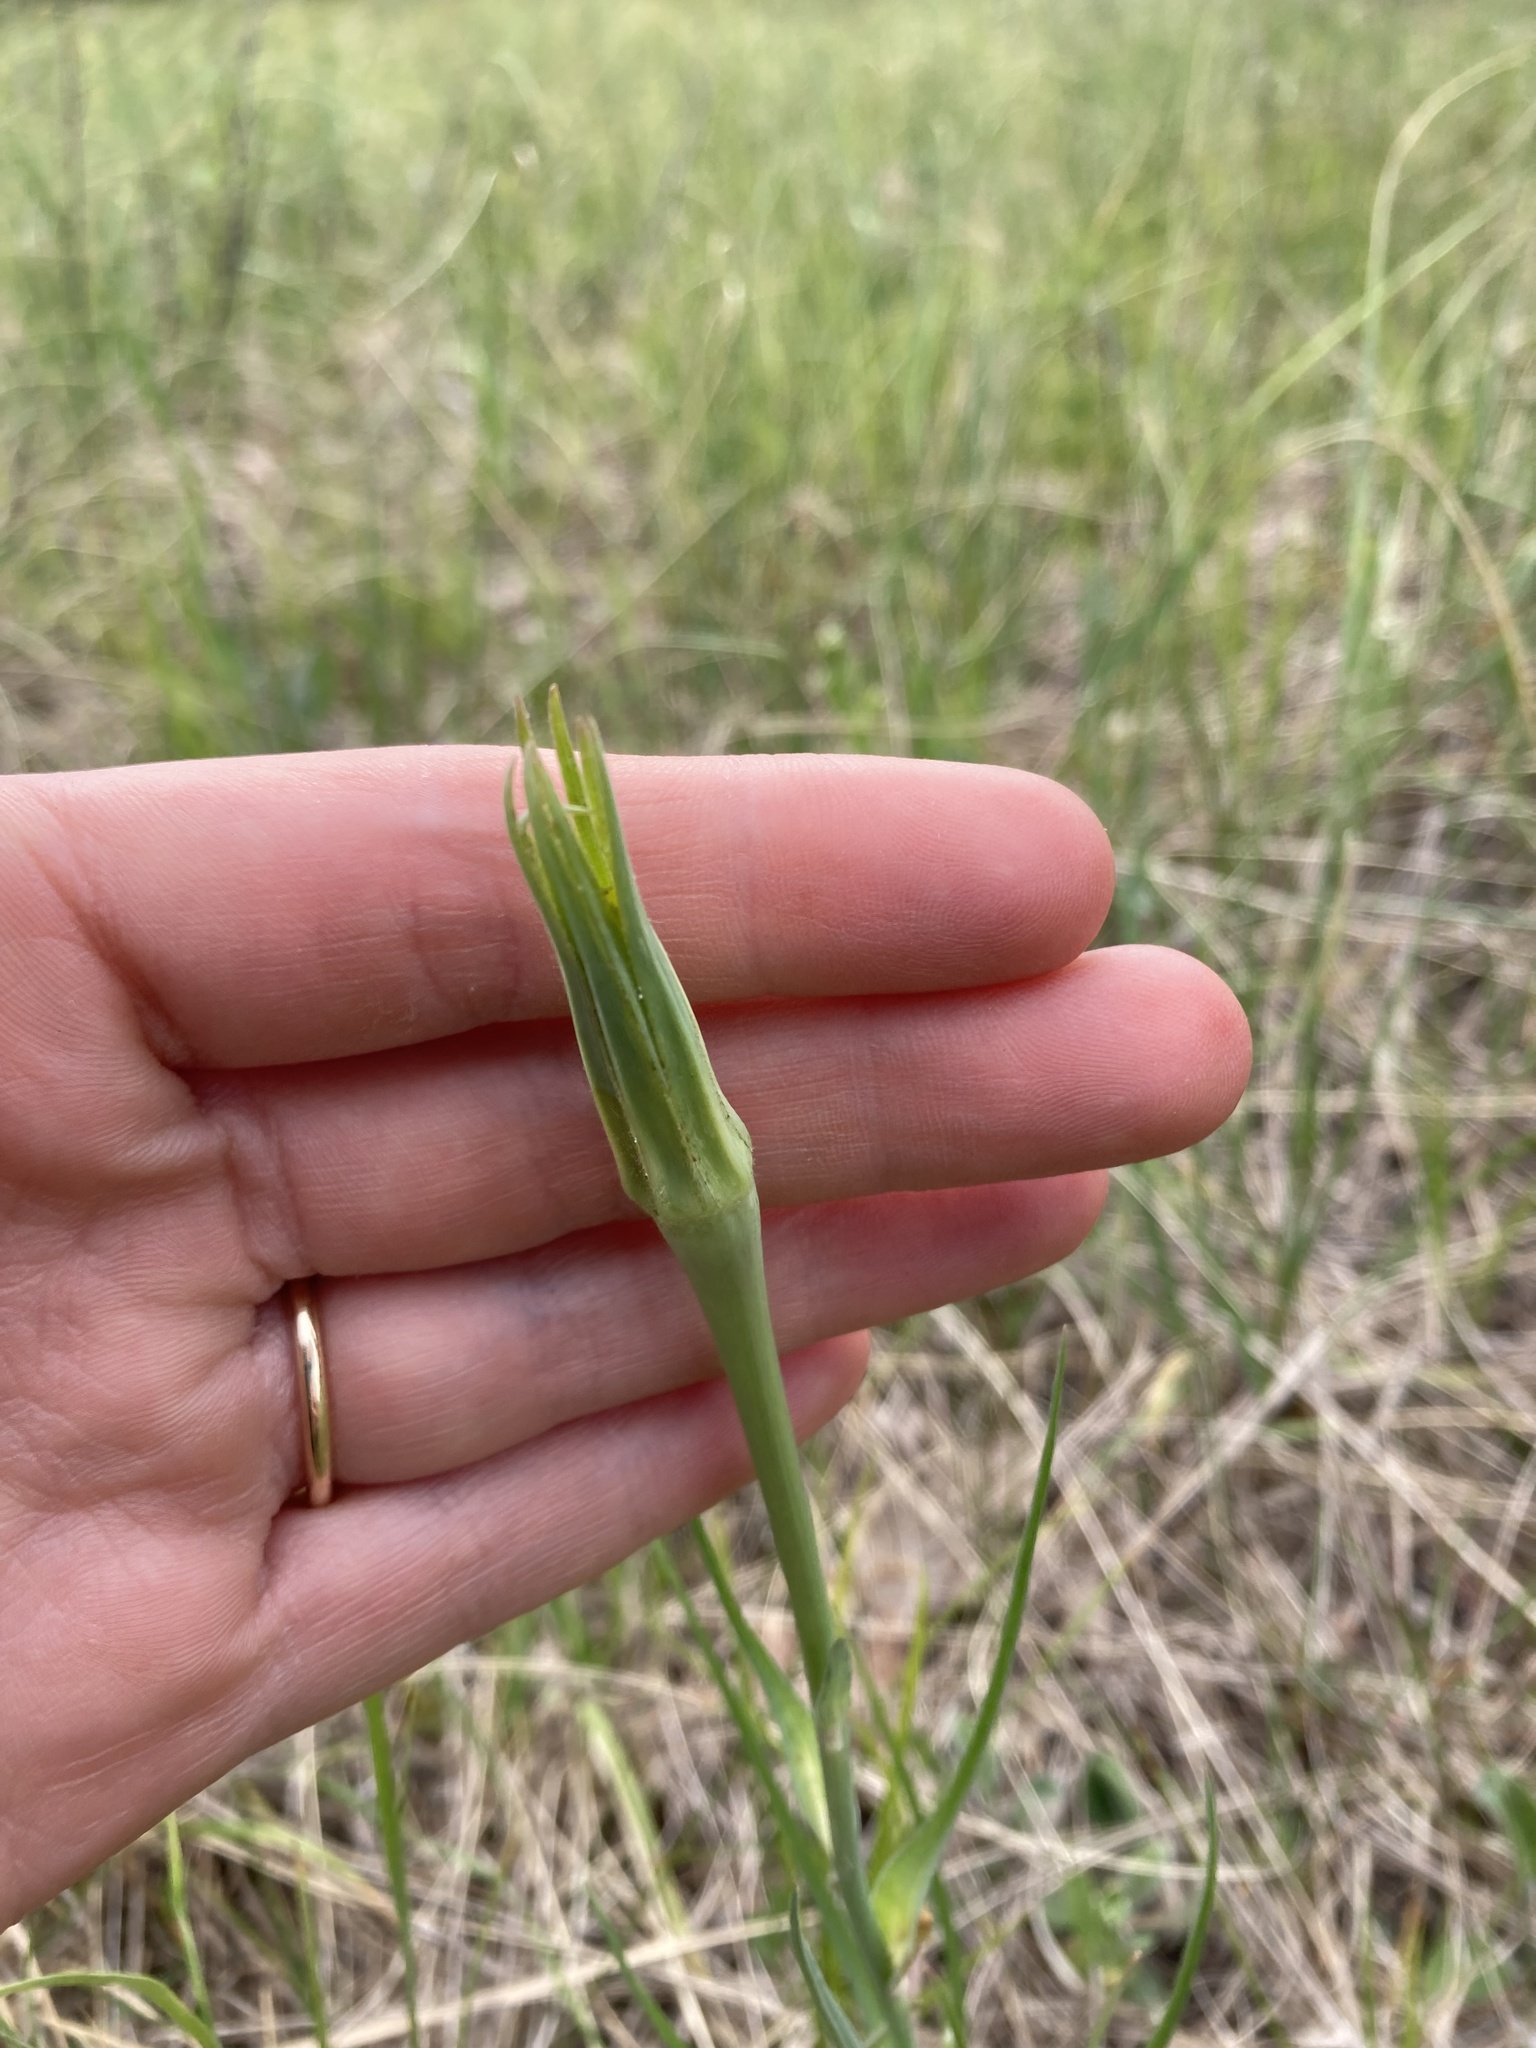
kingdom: Plantae
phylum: Tracheophyta
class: Magnoliopsida
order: Asterales
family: Asteraceae
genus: Tragopogon
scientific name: Tragopogon dubius
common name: Yellow salsify
